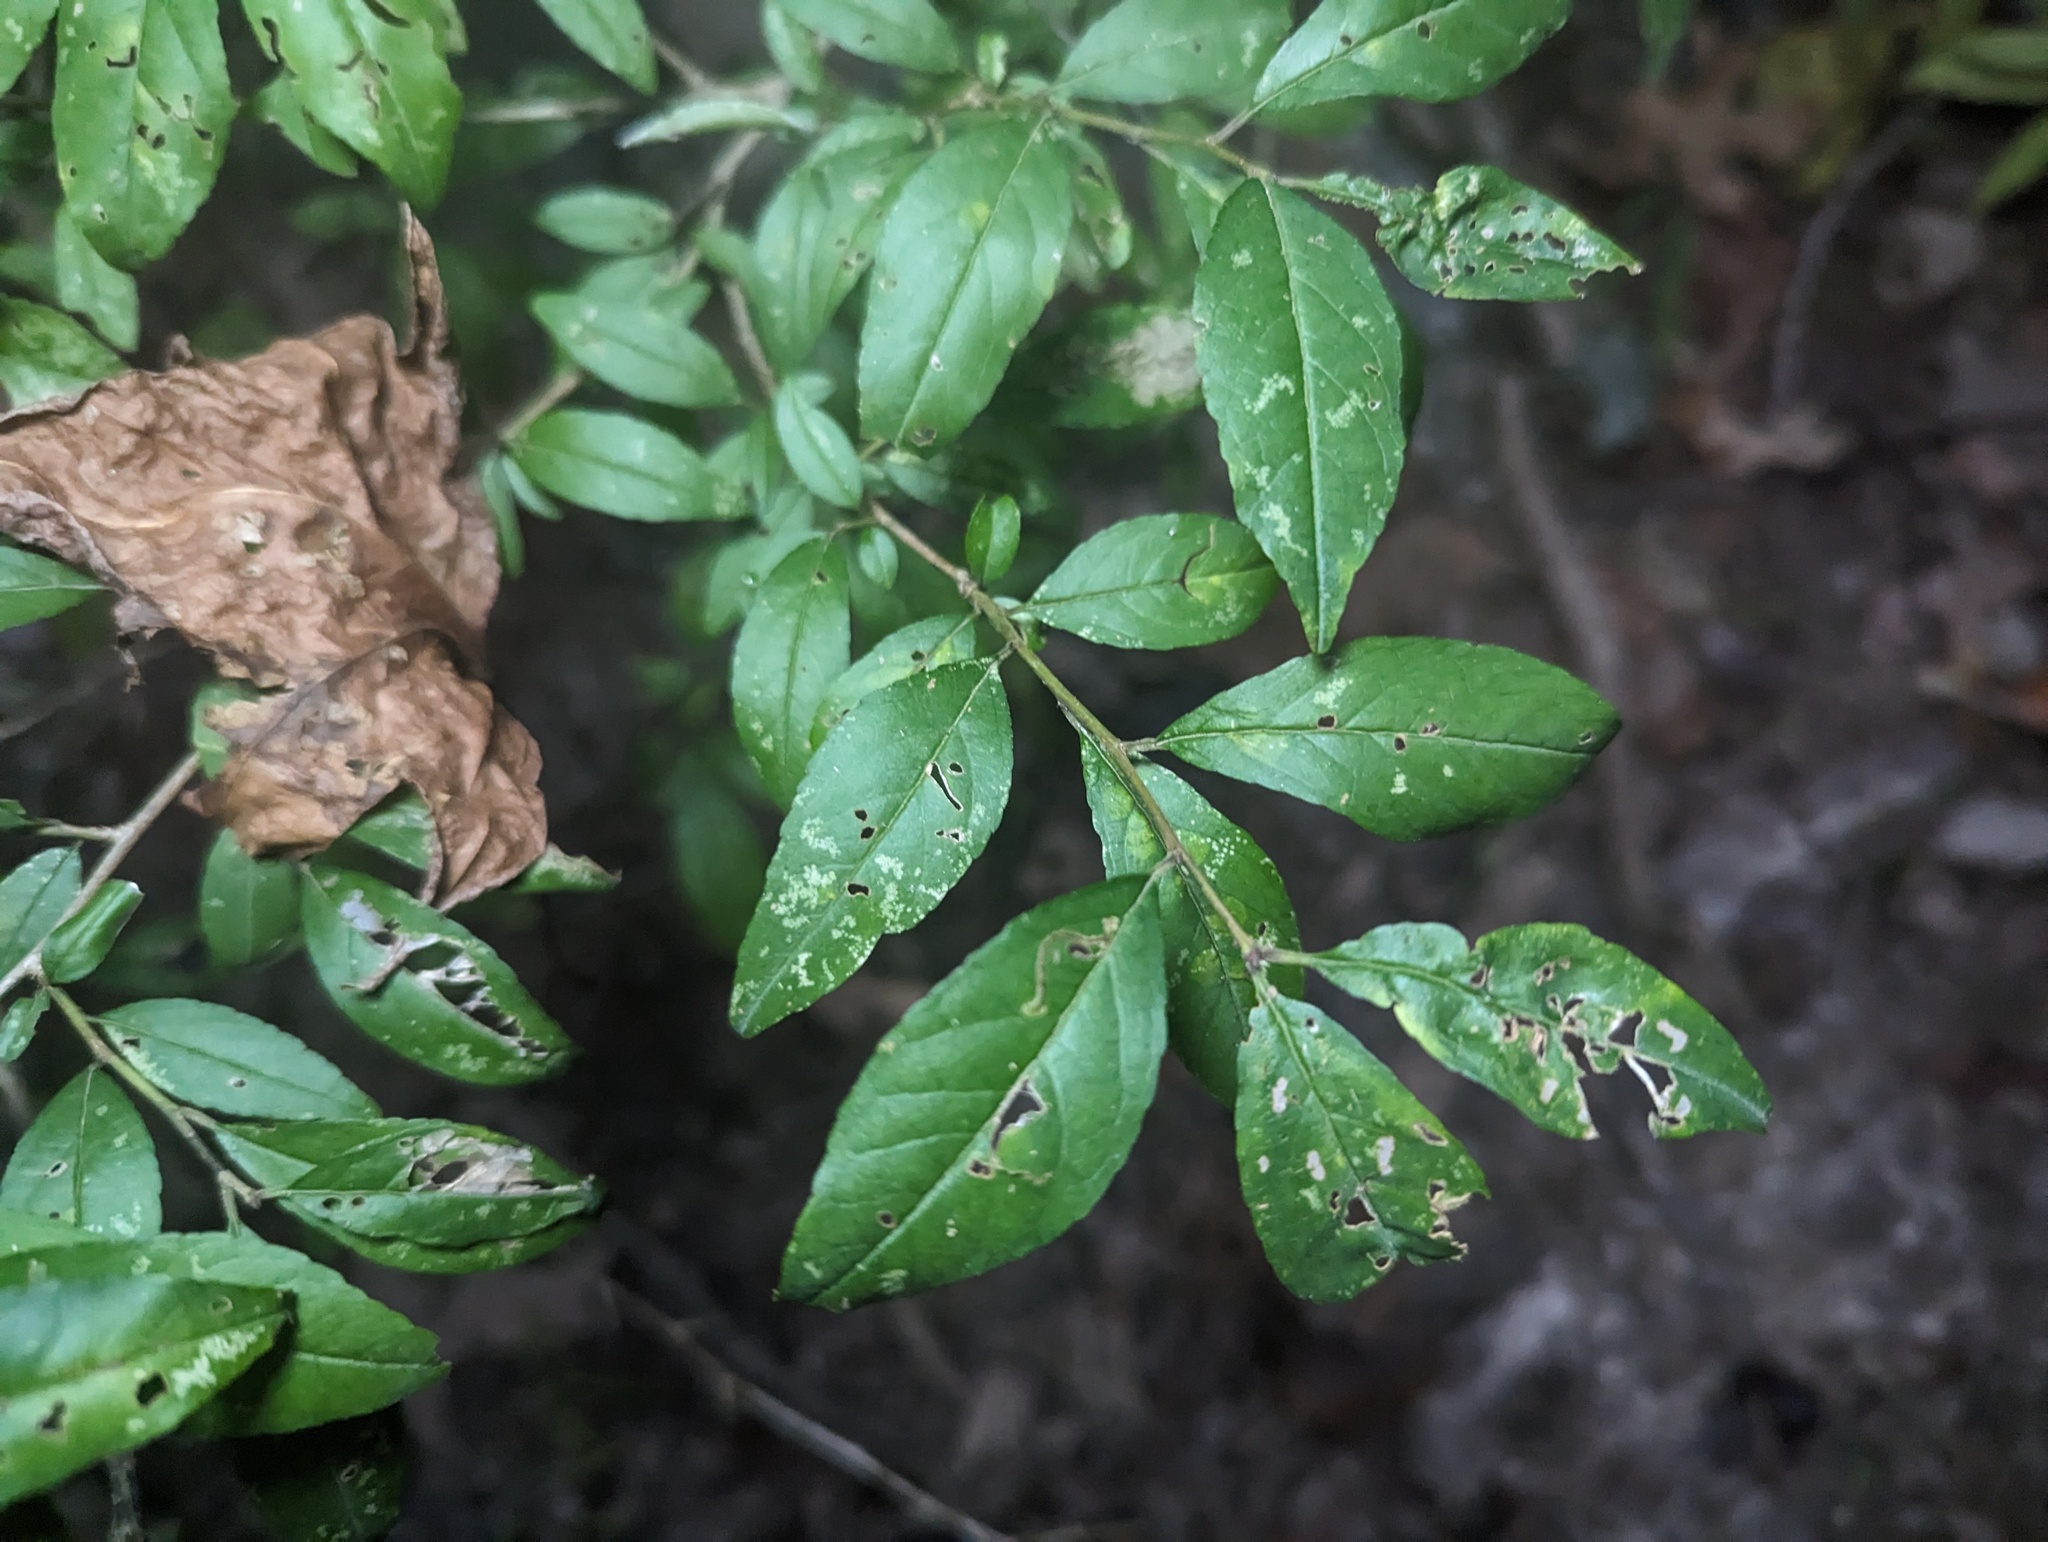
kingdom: Plantae
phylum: Tracheophyta
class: Magnoliopsida
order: Aquifoliales
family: Aquifoliaceae
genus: Ilex
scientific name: Ilex decidua
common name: Possum-haw
